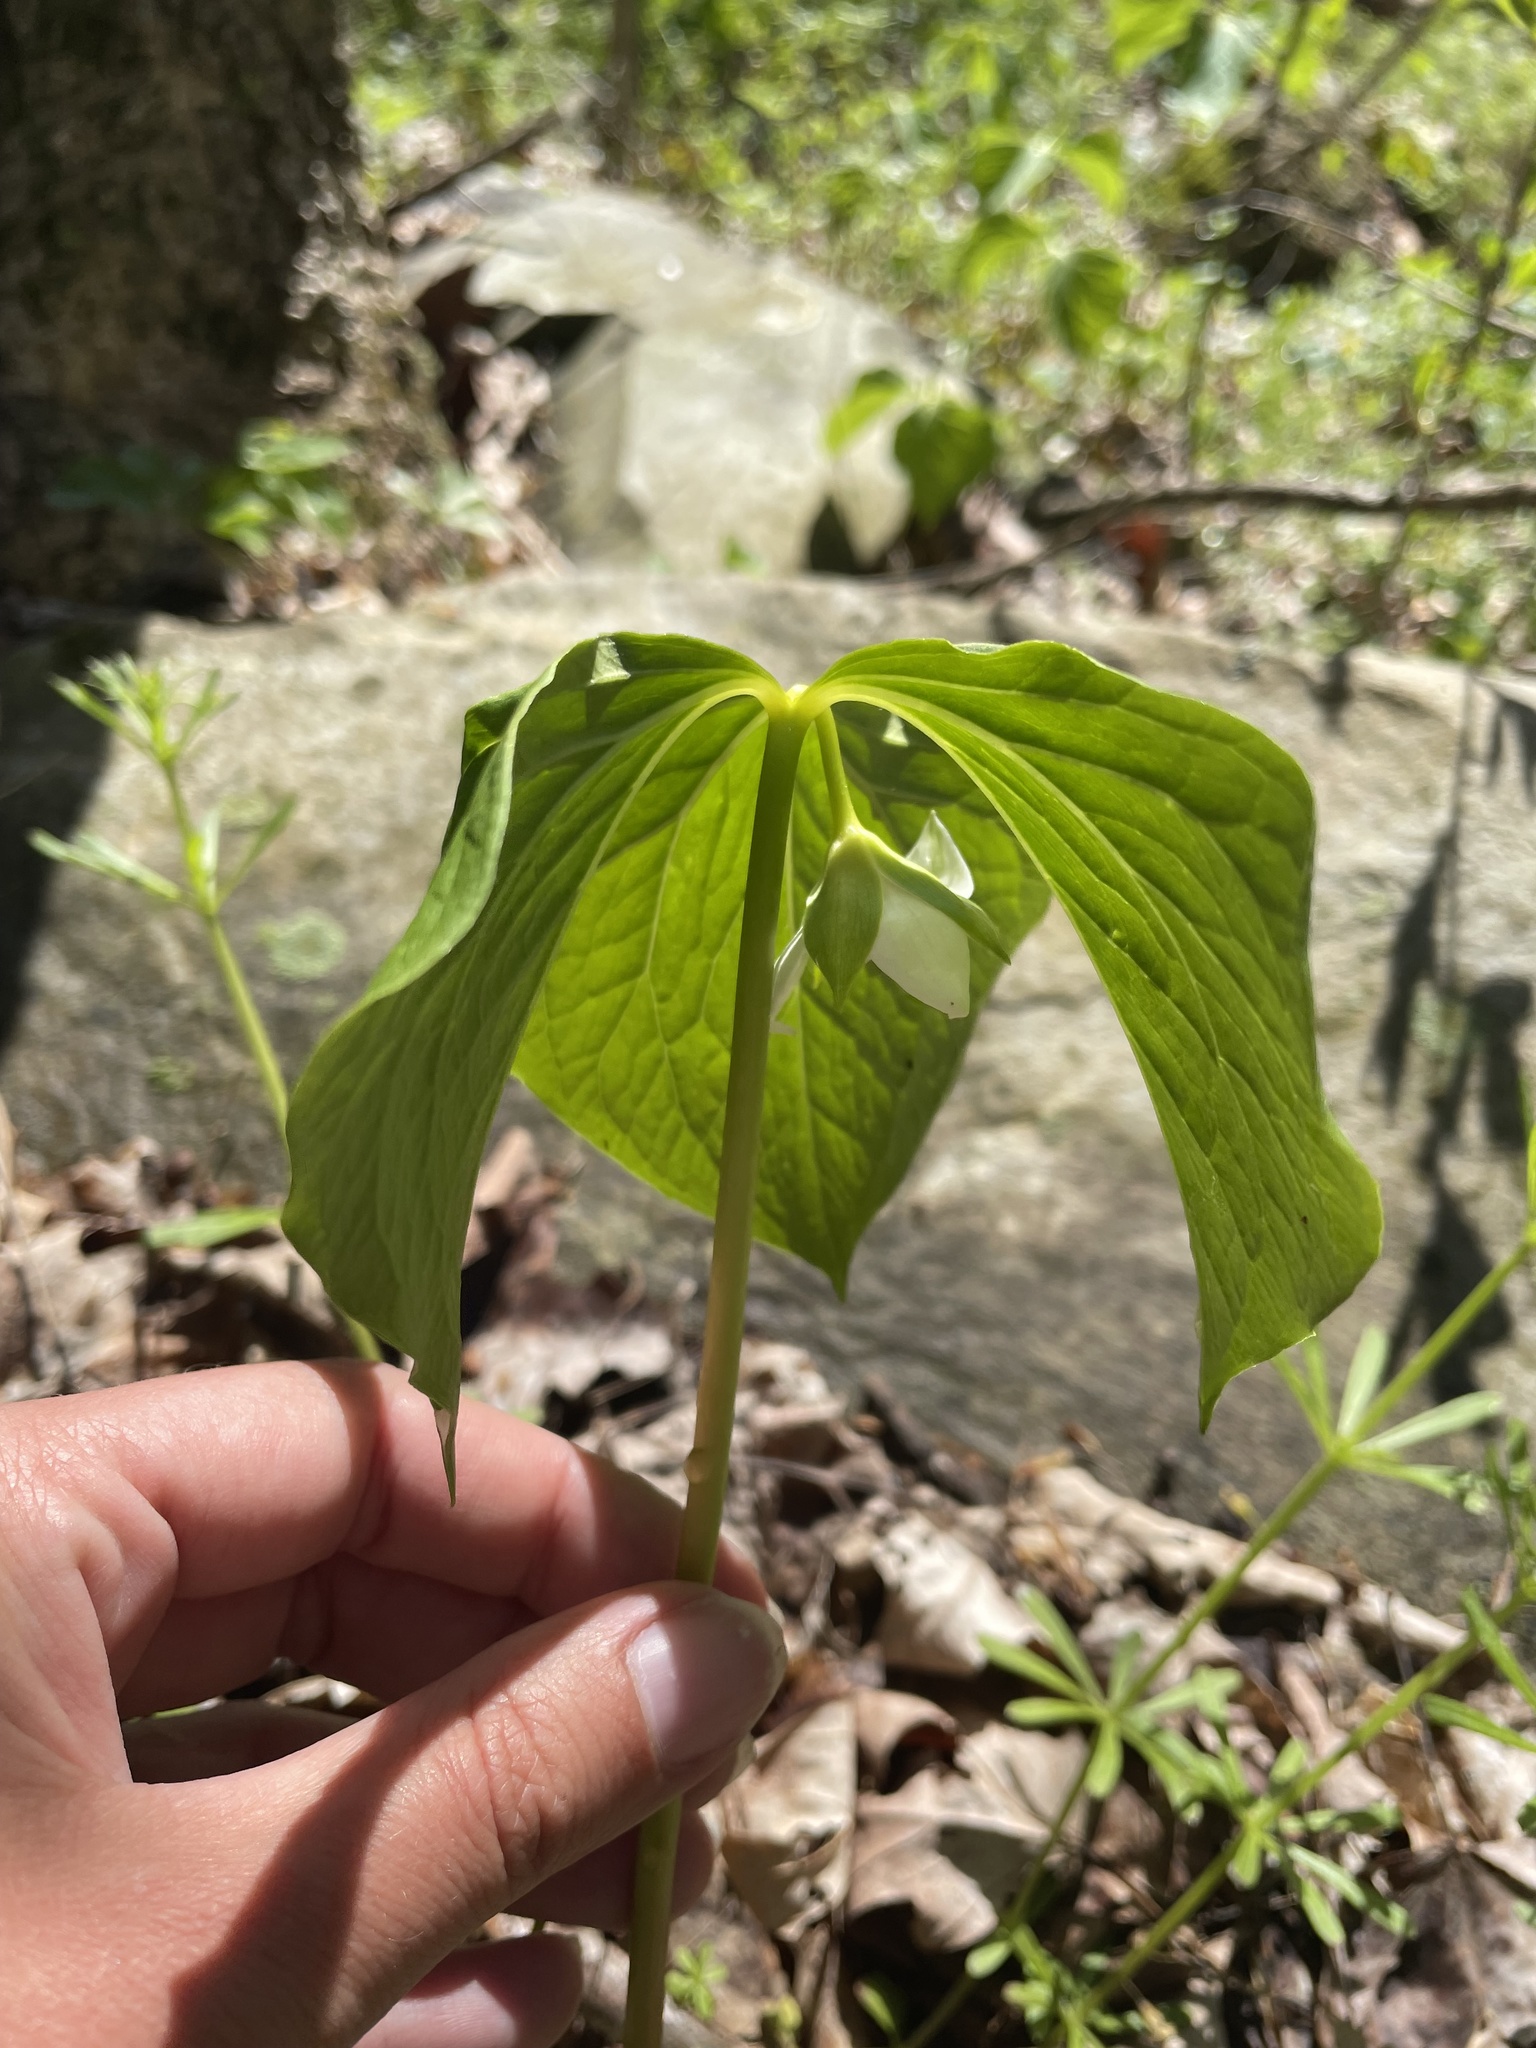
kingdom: Plantae
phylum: Tracheophyta
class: Liliopsida
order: Liliales
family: Melanthiaceae
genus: Trillium
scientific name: Trillium cernuum
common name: Nodding trillium
